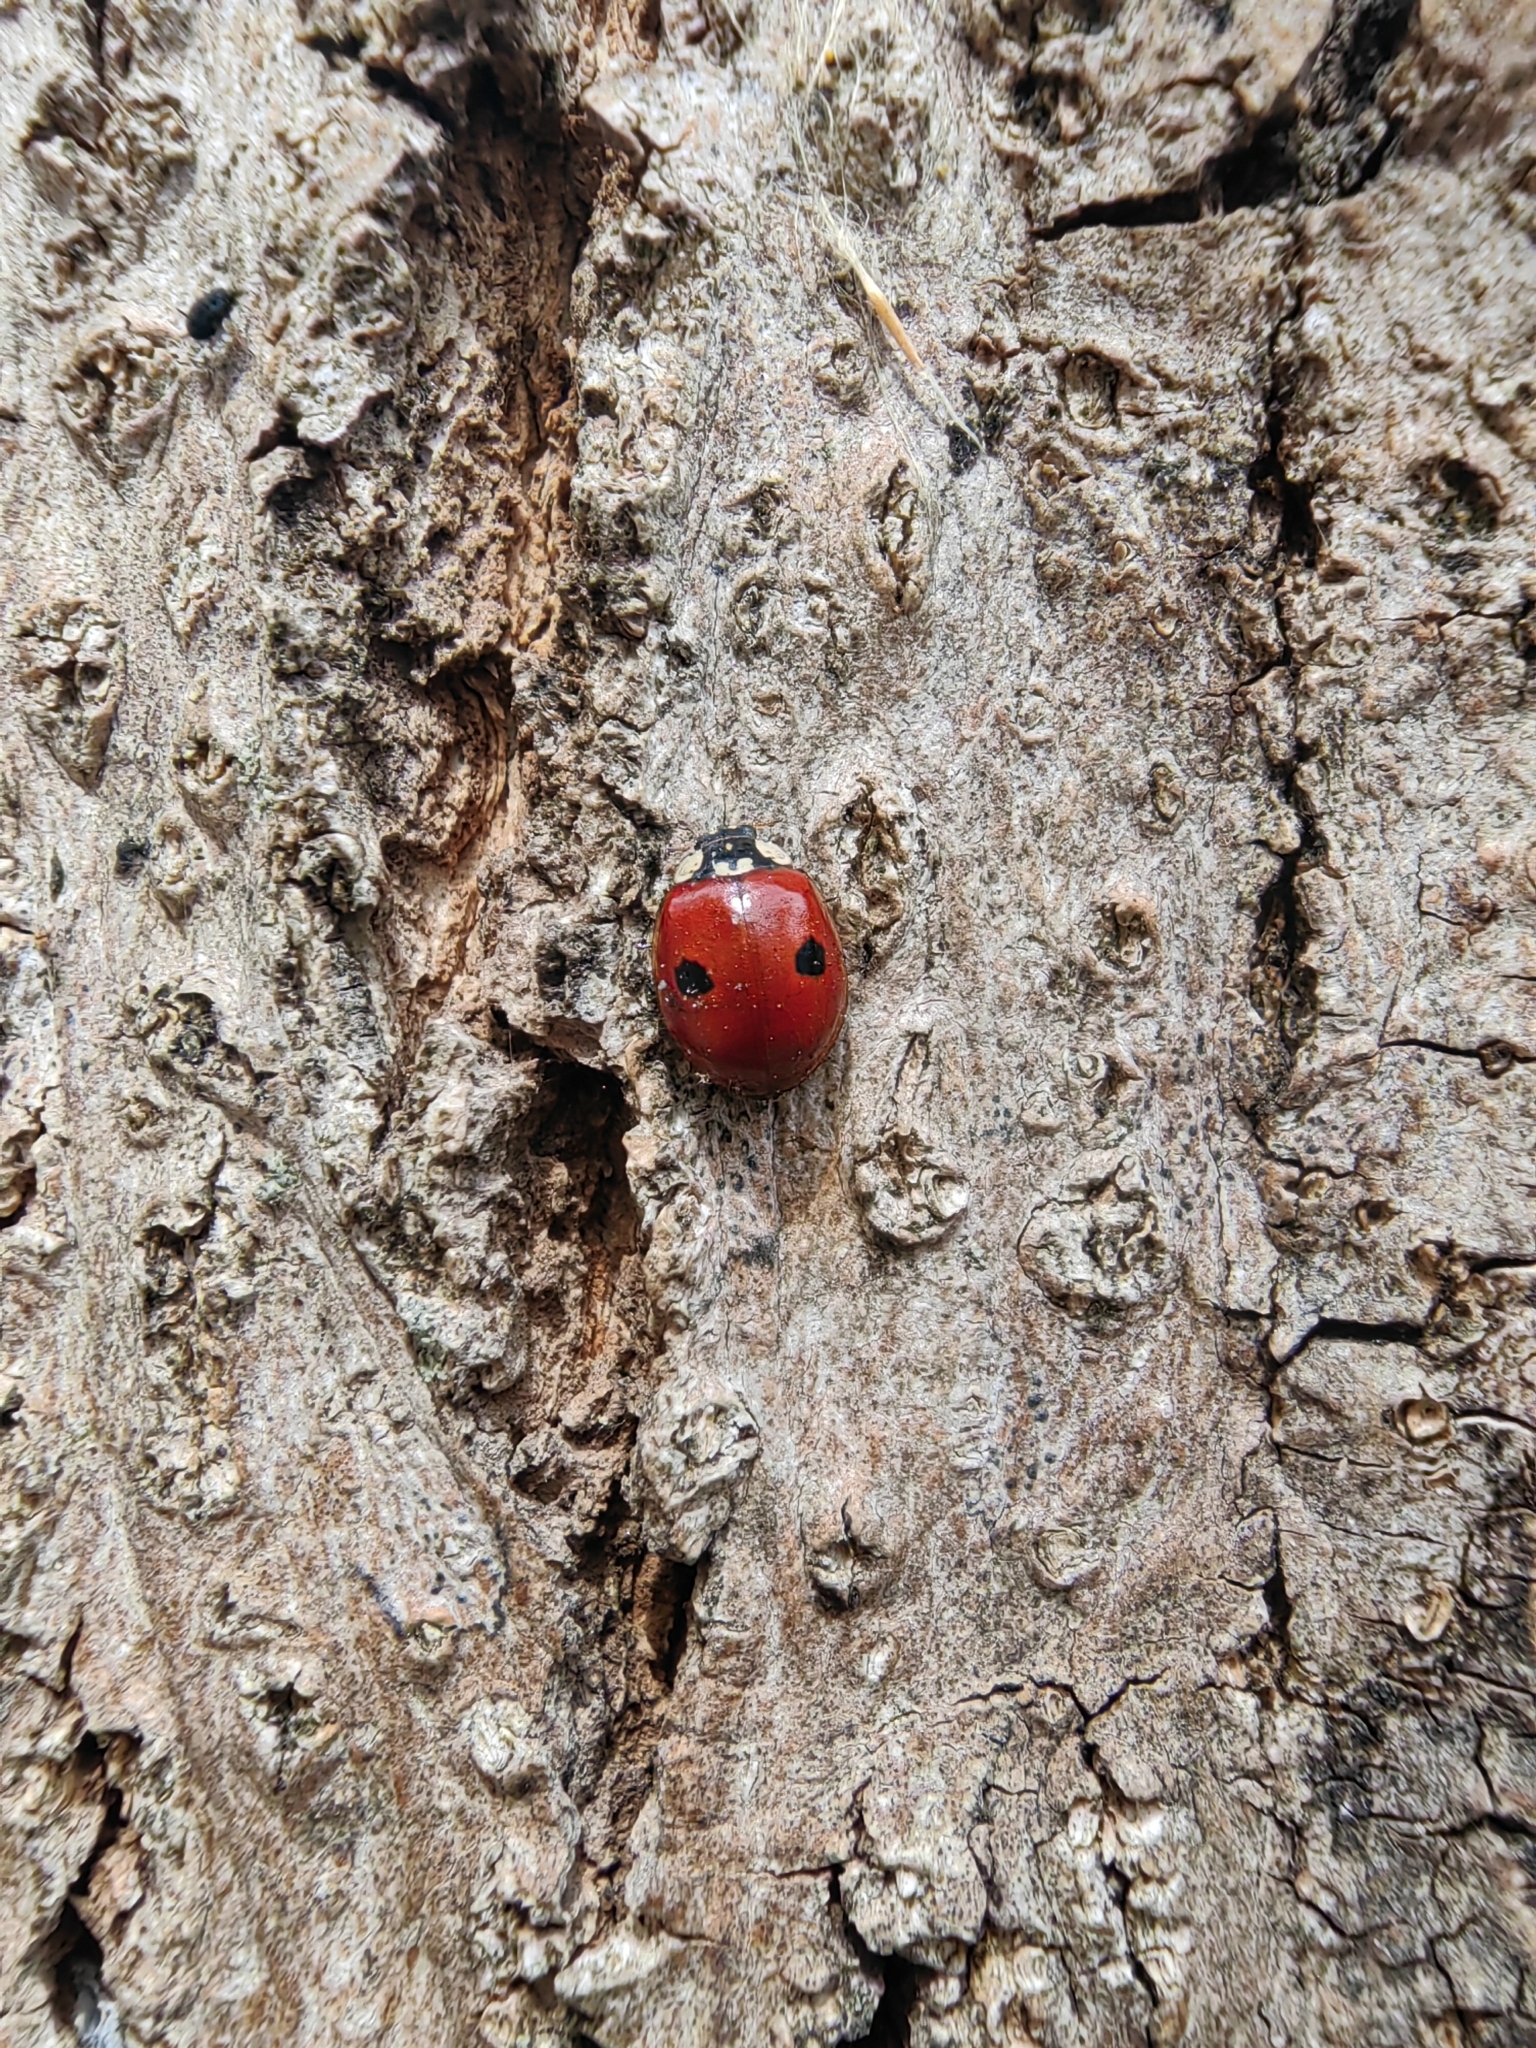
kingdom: Animalia
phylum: Arthropoda
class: Insecta
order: Coleoptera
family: Coccinellidae
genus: Adalia
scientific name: Adalia bipunctata
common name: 2-spot ladybird
